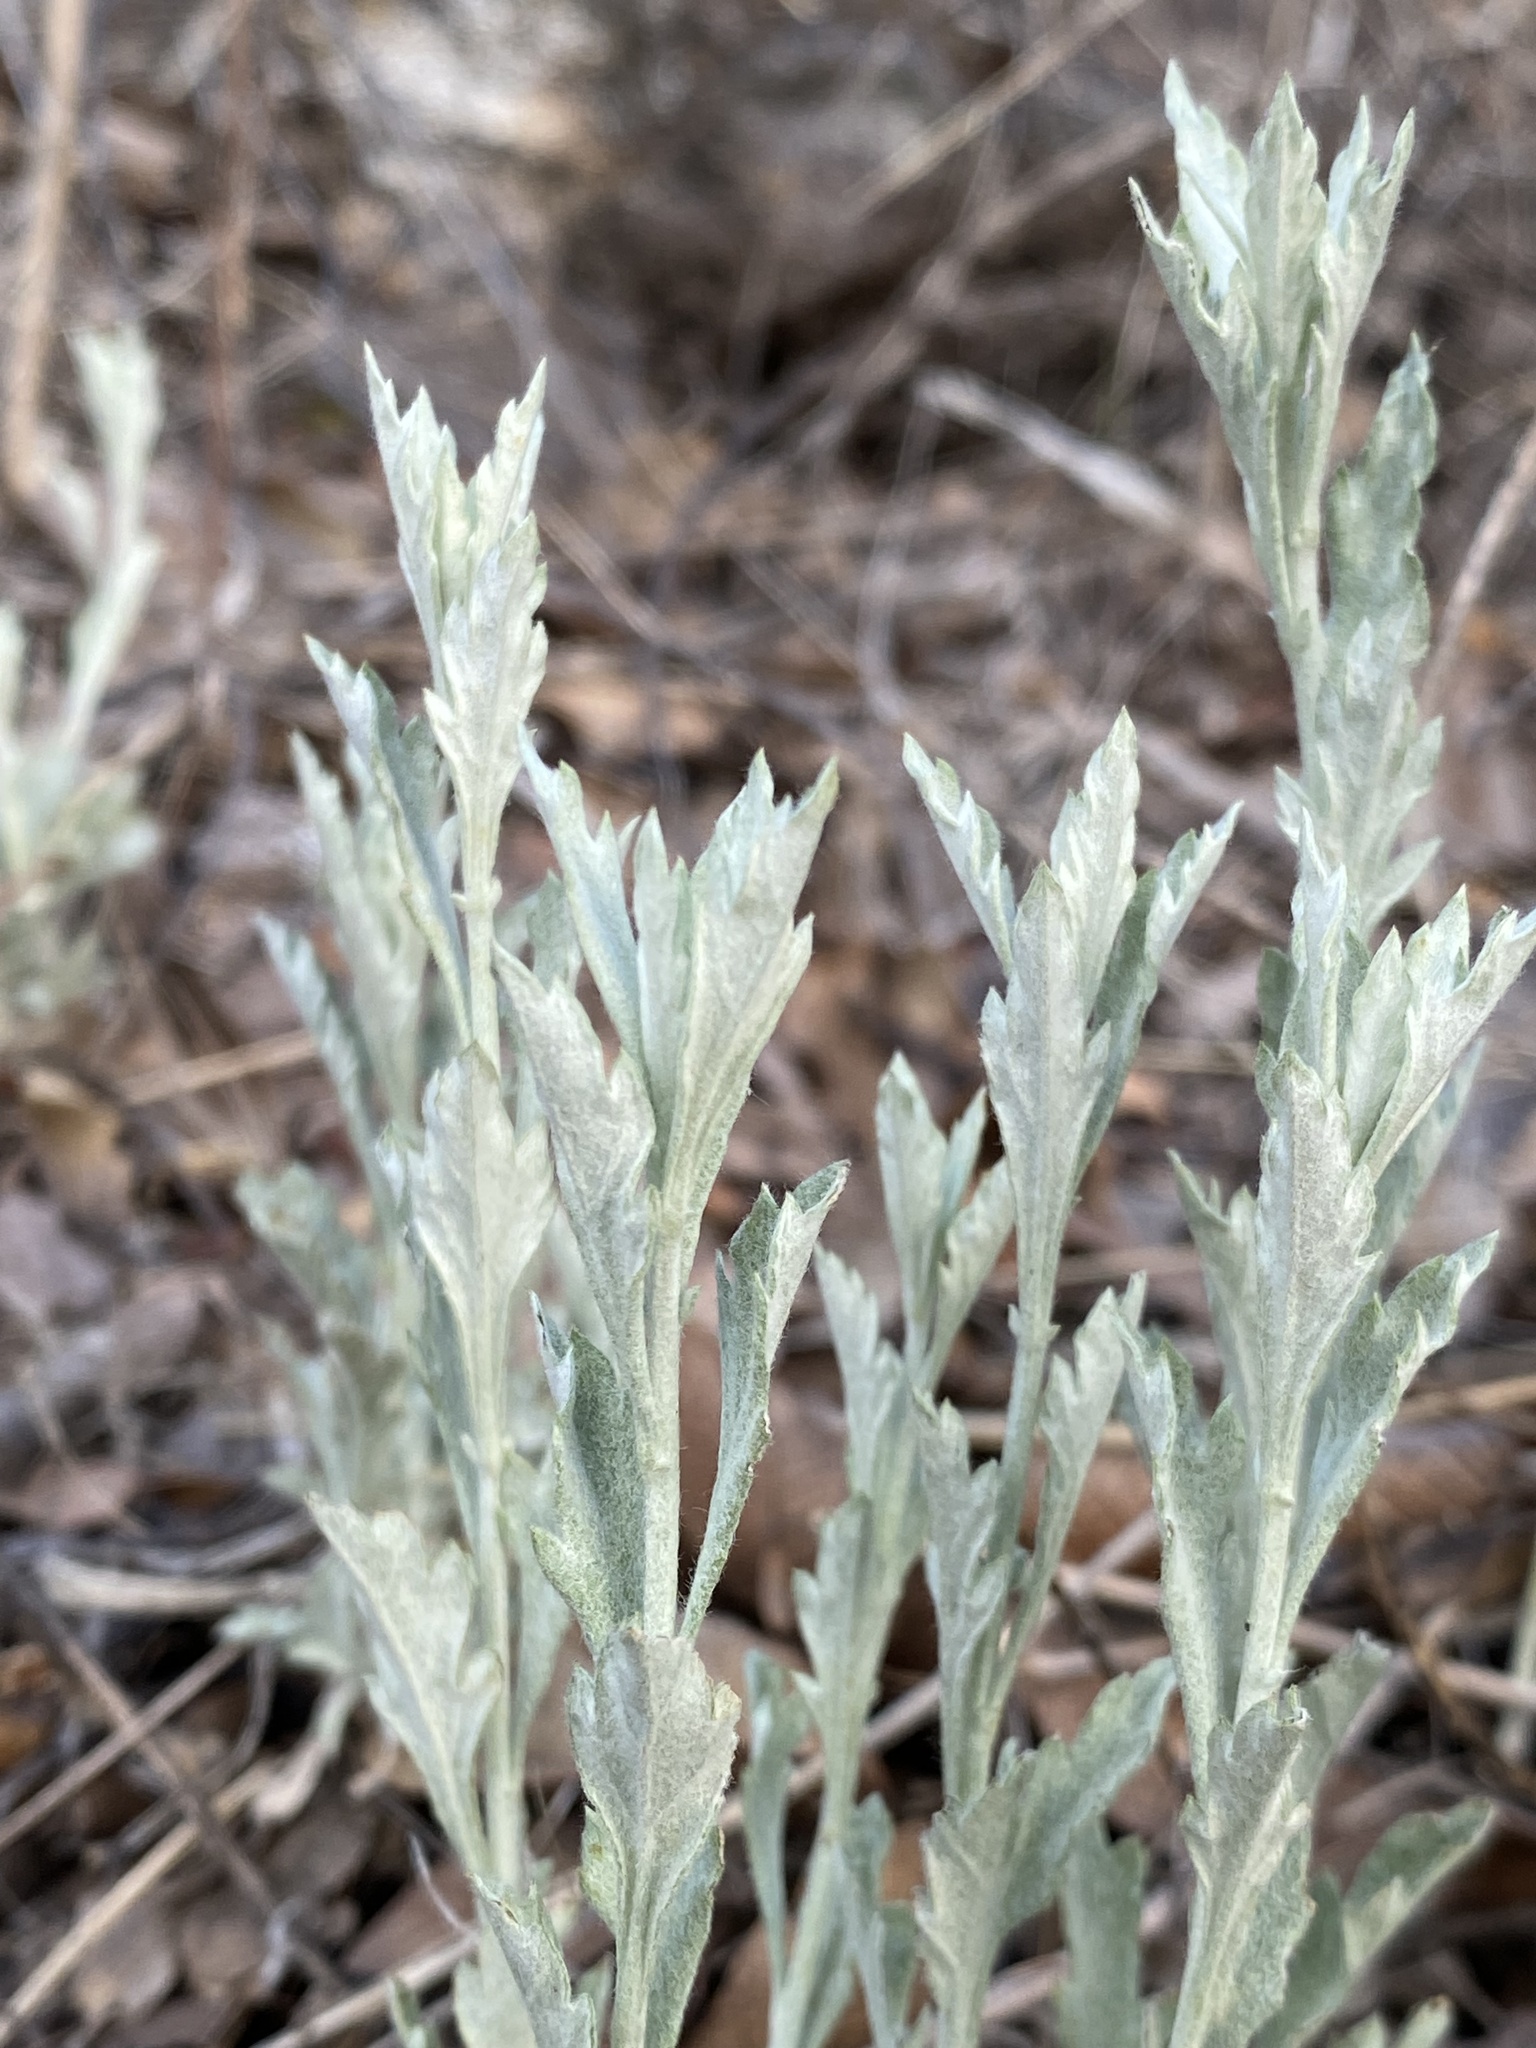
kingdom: Plantae
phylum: Tracheophyta
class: Magnoliopsida
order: Asterales
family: Asteraceae
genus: Artemisia
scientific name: Artemisia ludoviciana
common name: Western mugwort
